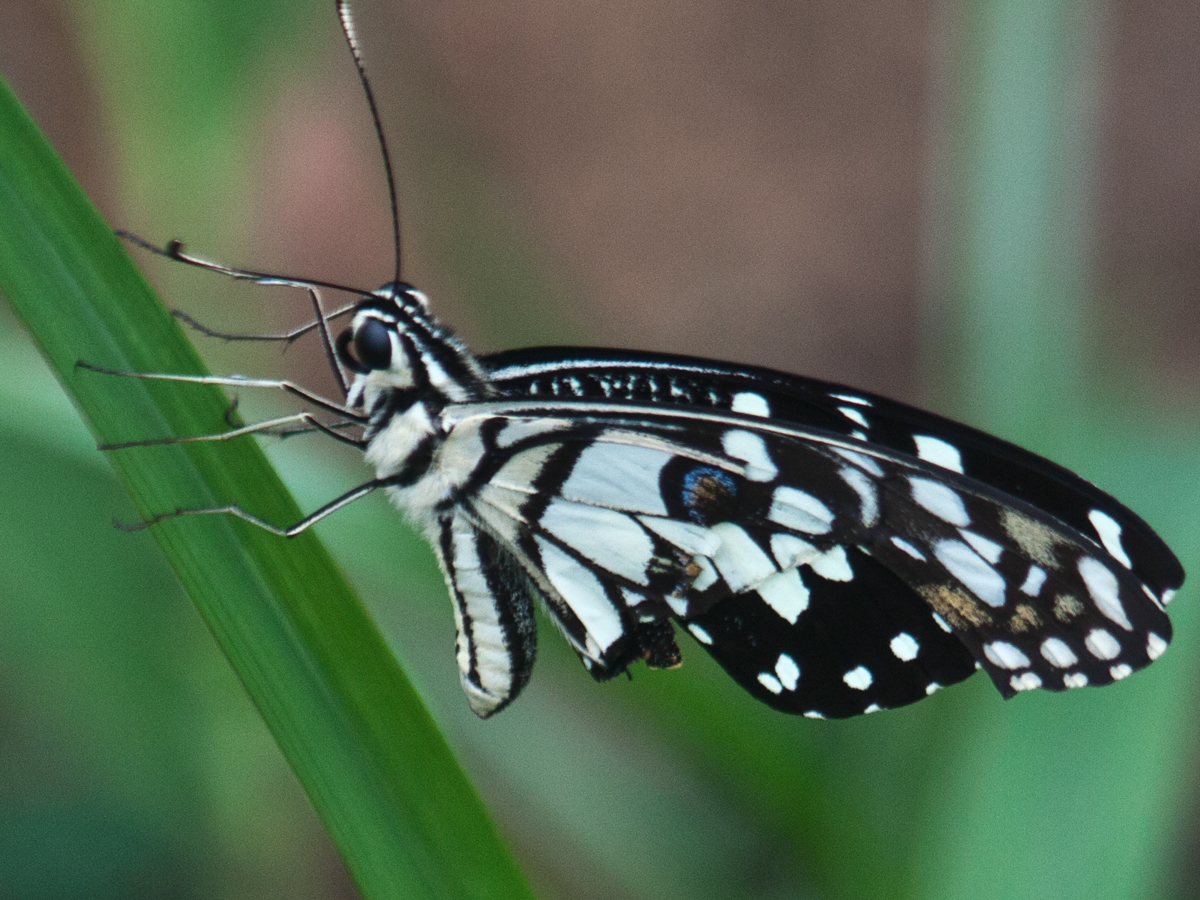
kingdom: Animalia
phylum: Arthropoda
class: Insecta
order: Lepidoptera
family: Papilionidae
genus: Papilio
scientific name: Papilio demoleus
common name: Lime butterfly
